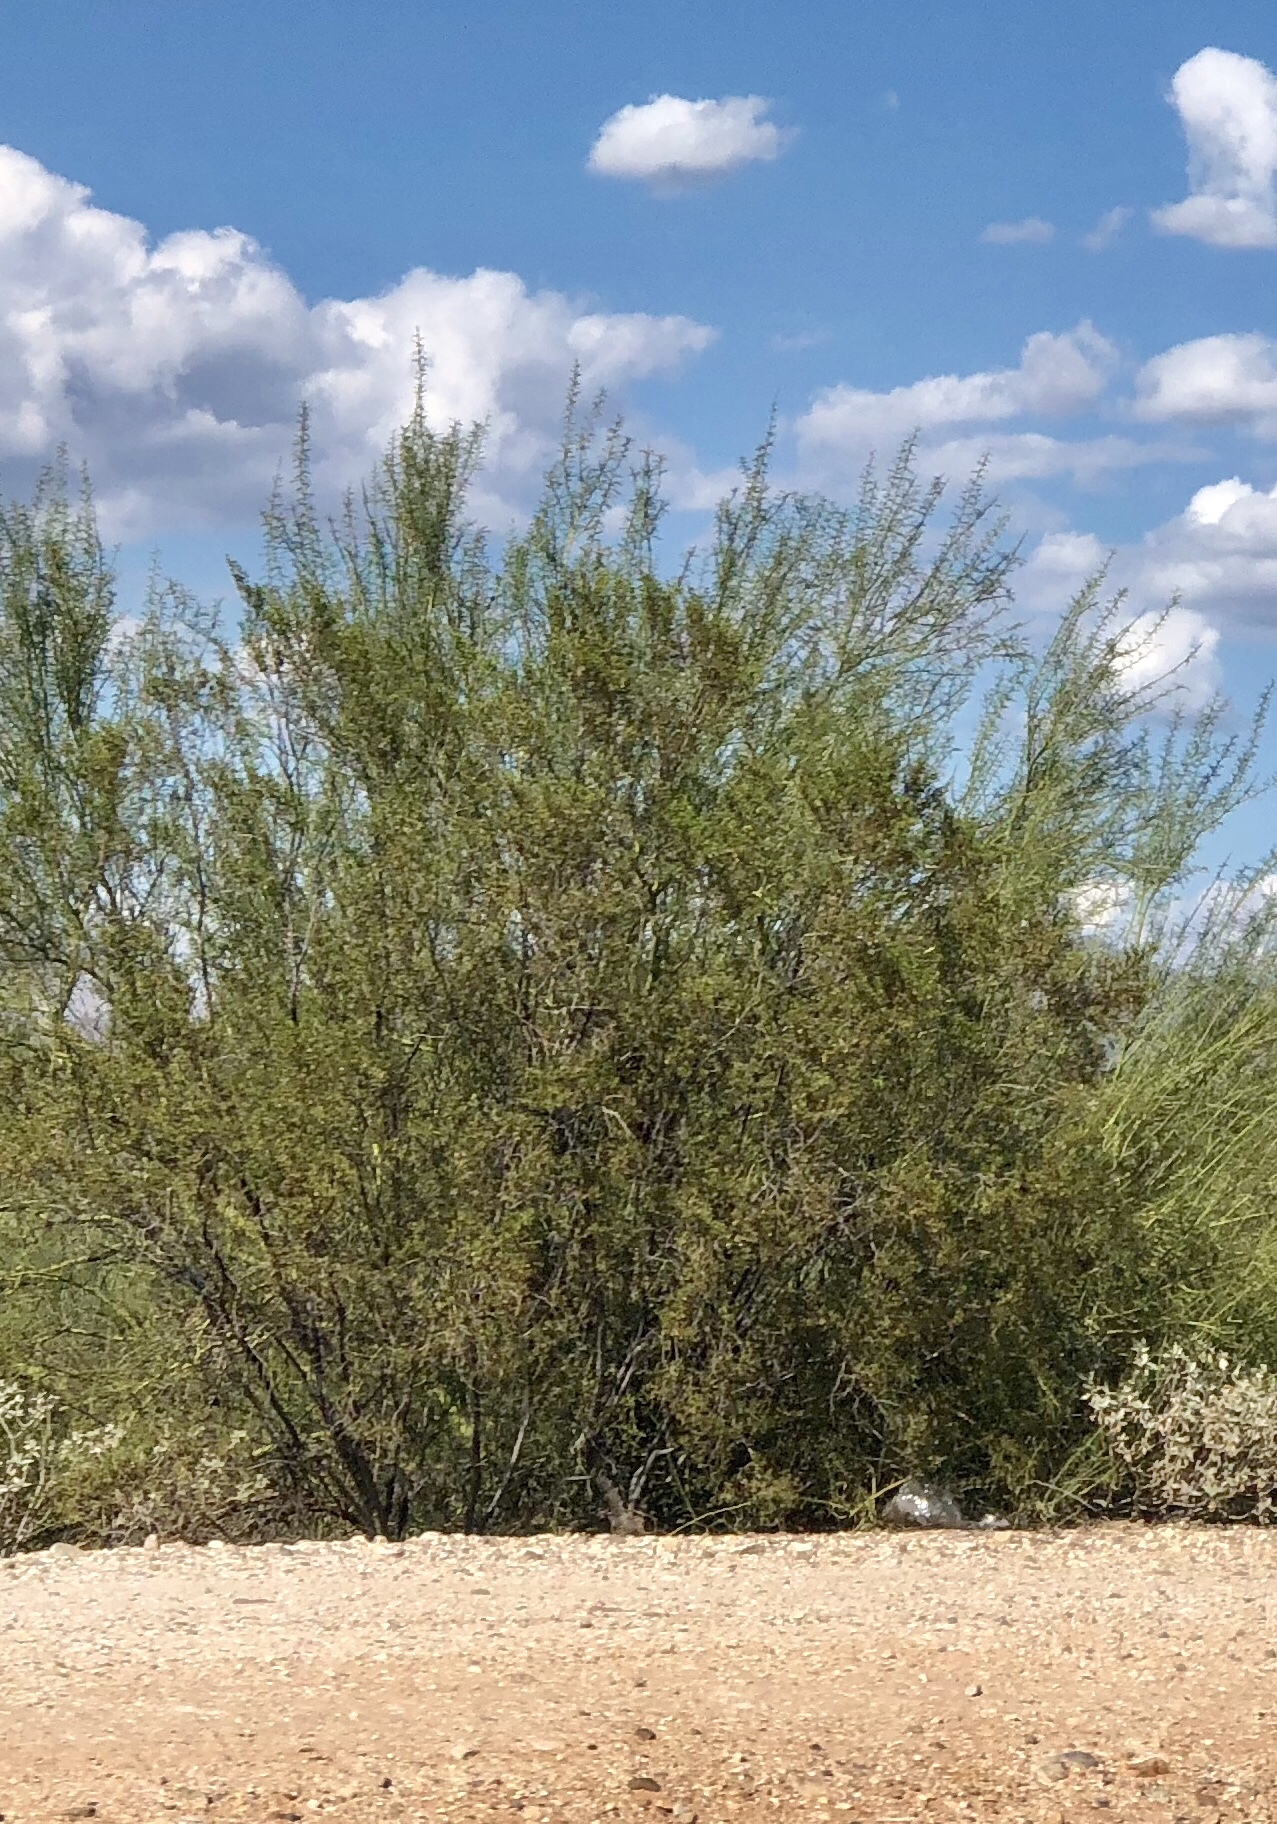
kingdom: Plantae
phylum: Tracheophyta
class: Magnoliopsida
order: Zygophyllales
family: Zygophyllaceae
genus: Larrea
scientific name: Larrea tridentata
